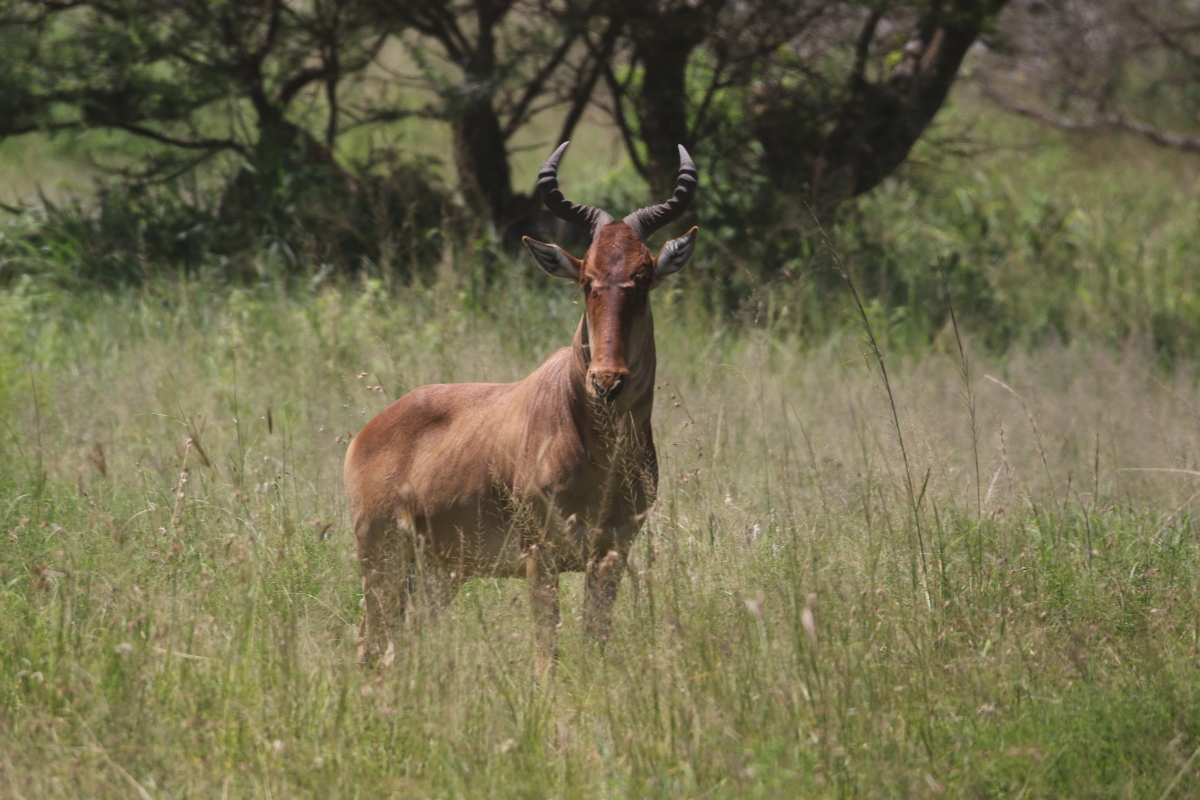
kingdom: Animalia
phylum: Chordata
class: Mammalia
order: Artiodactyla
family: Bovidae
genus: Alcelaphus
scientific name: Alcelaphus buselaphus
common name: Hartebeest
